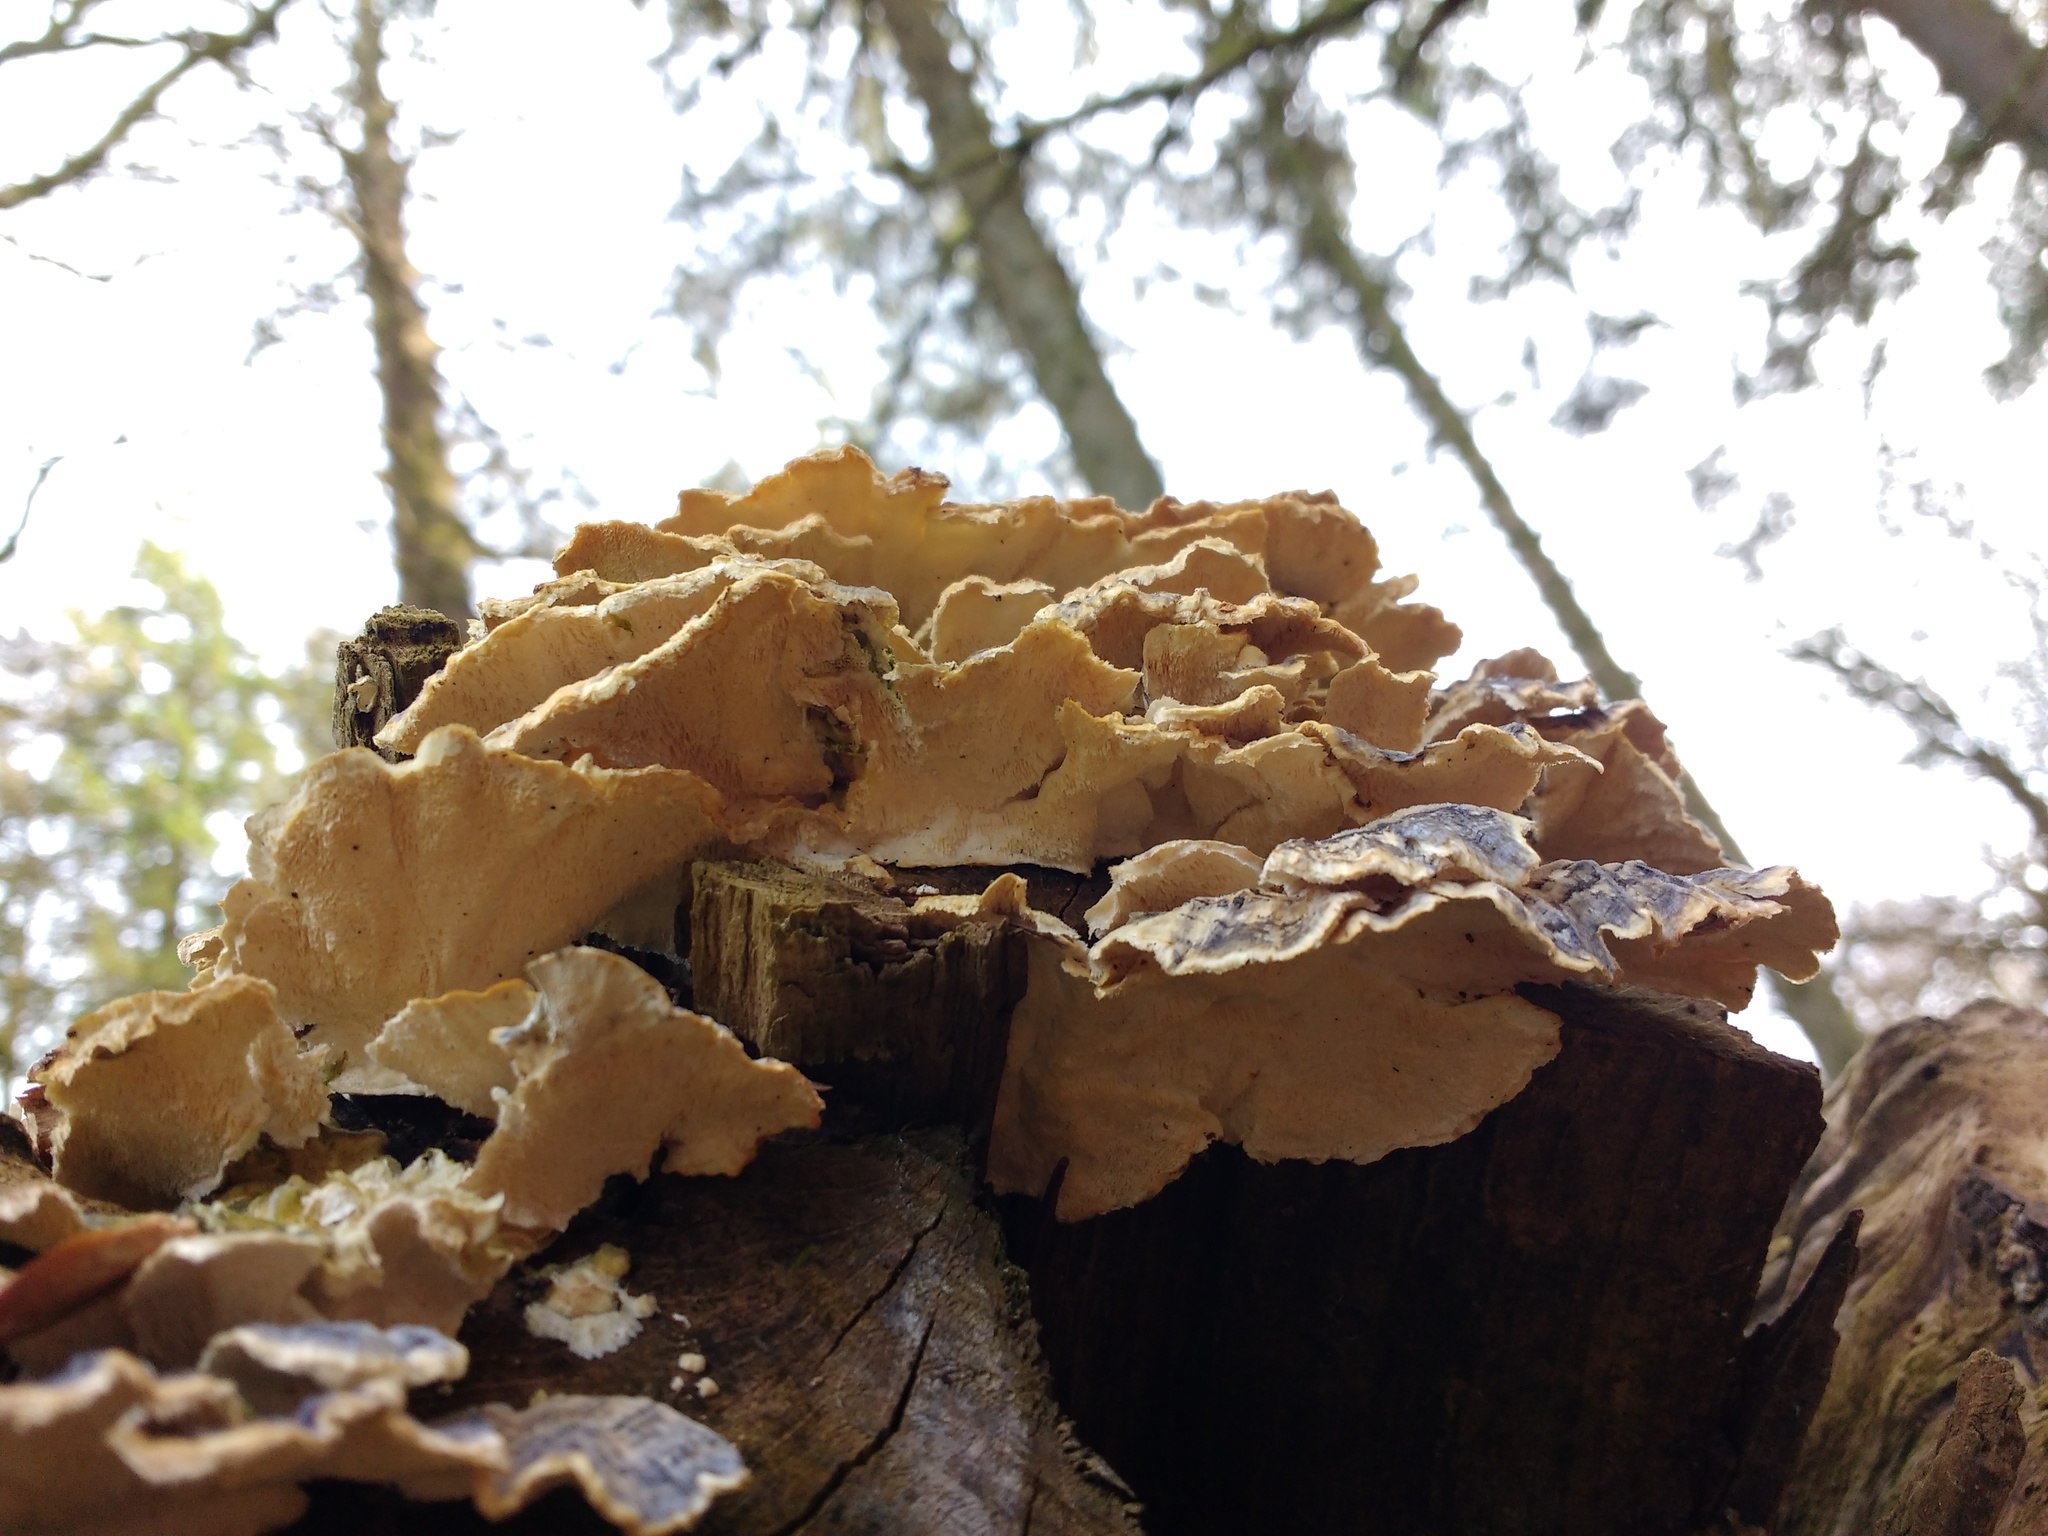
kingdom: Fungi
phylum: Basidiomycota
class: Agaricomycetes
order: Polyporales
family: Polyporaceae
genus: Trametes
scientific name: Trametes versicolor
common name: Turkeytail
